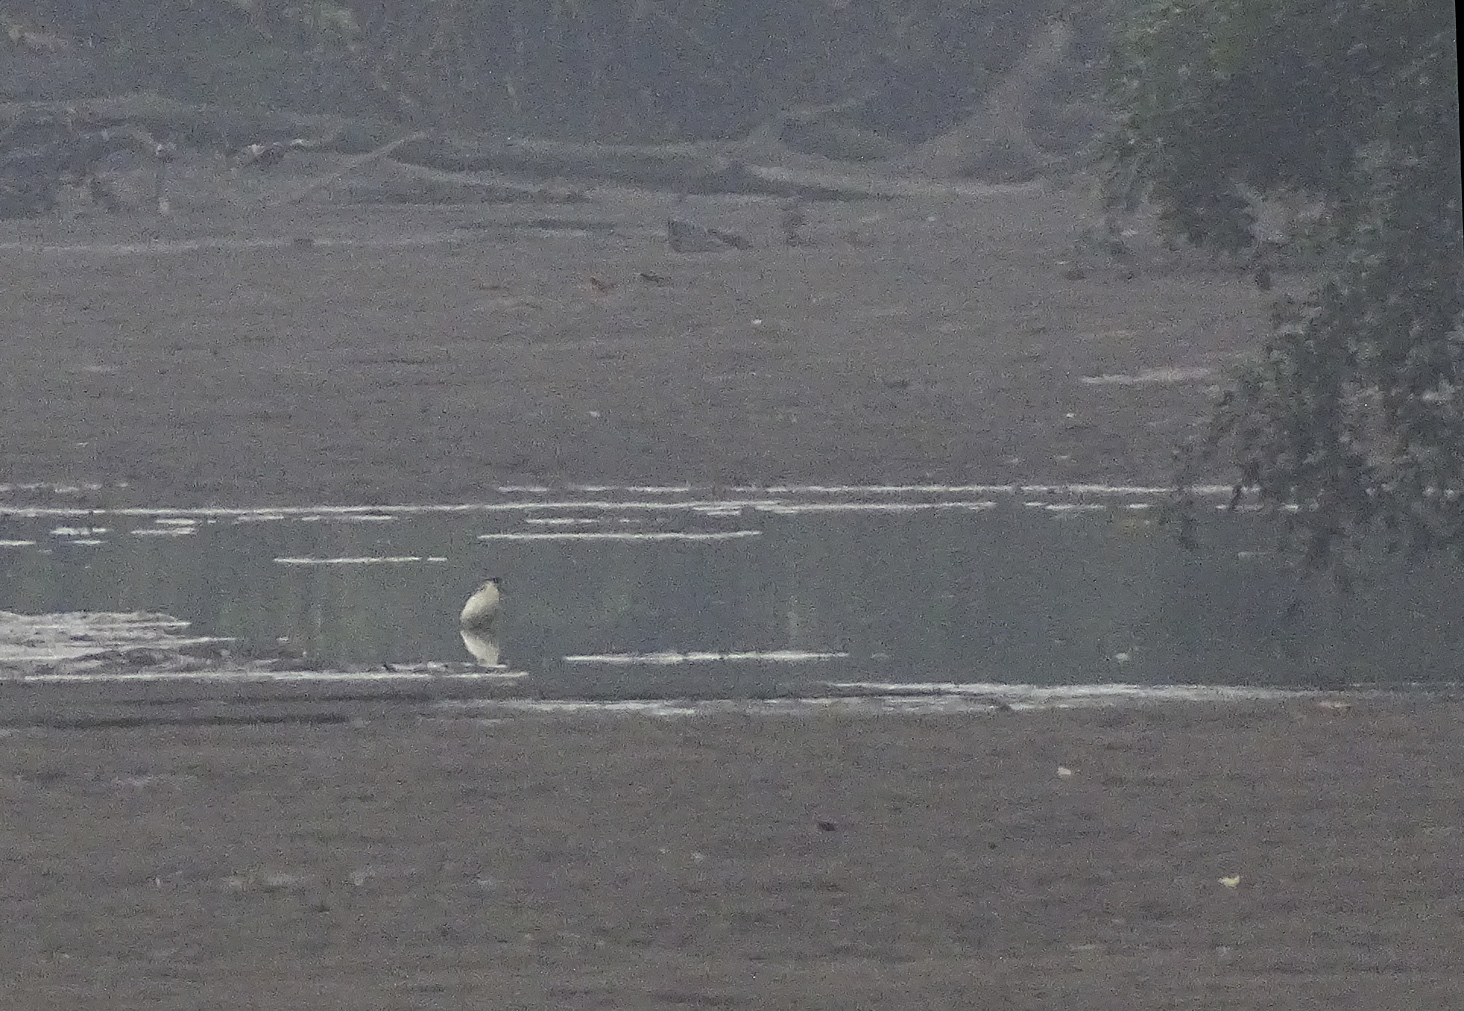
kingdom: Animalia
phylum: Chordata
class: Aves
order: Pelecaniformes
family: Ardeidae
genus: Pilherodius
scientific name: Pilherodius pileatus
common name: Capped heron
